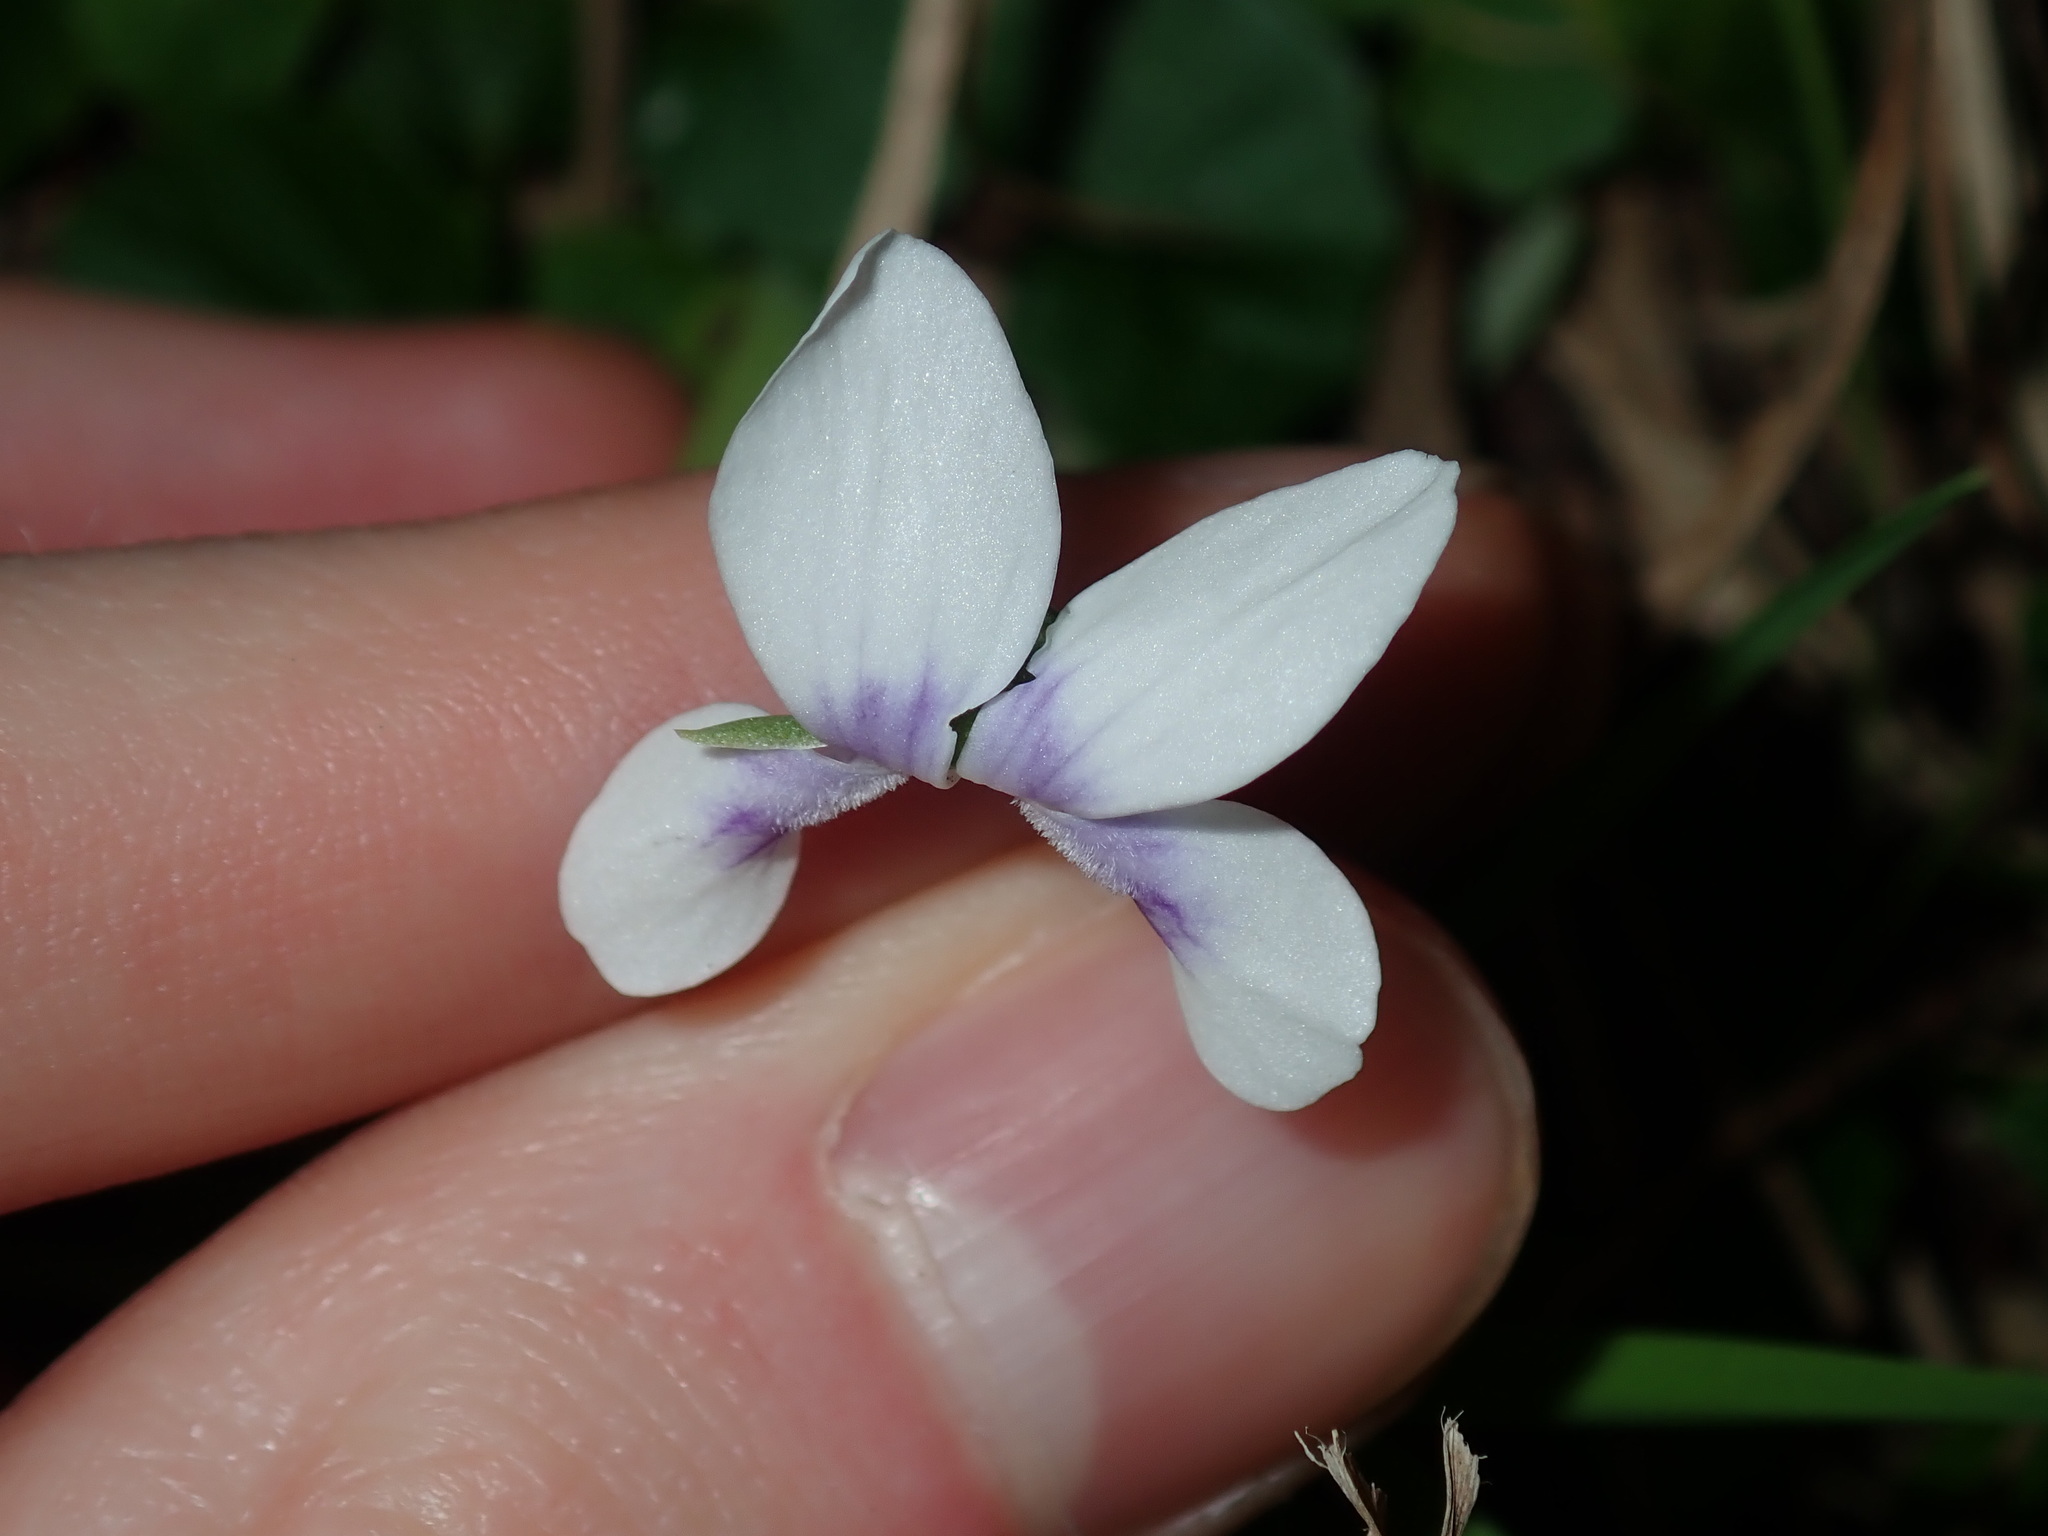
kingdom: Plantae
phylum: Tracheophyta
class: Magnoliopsida
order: Malpighiales
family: Violaceae
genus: Viola
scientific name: Viola banksii
